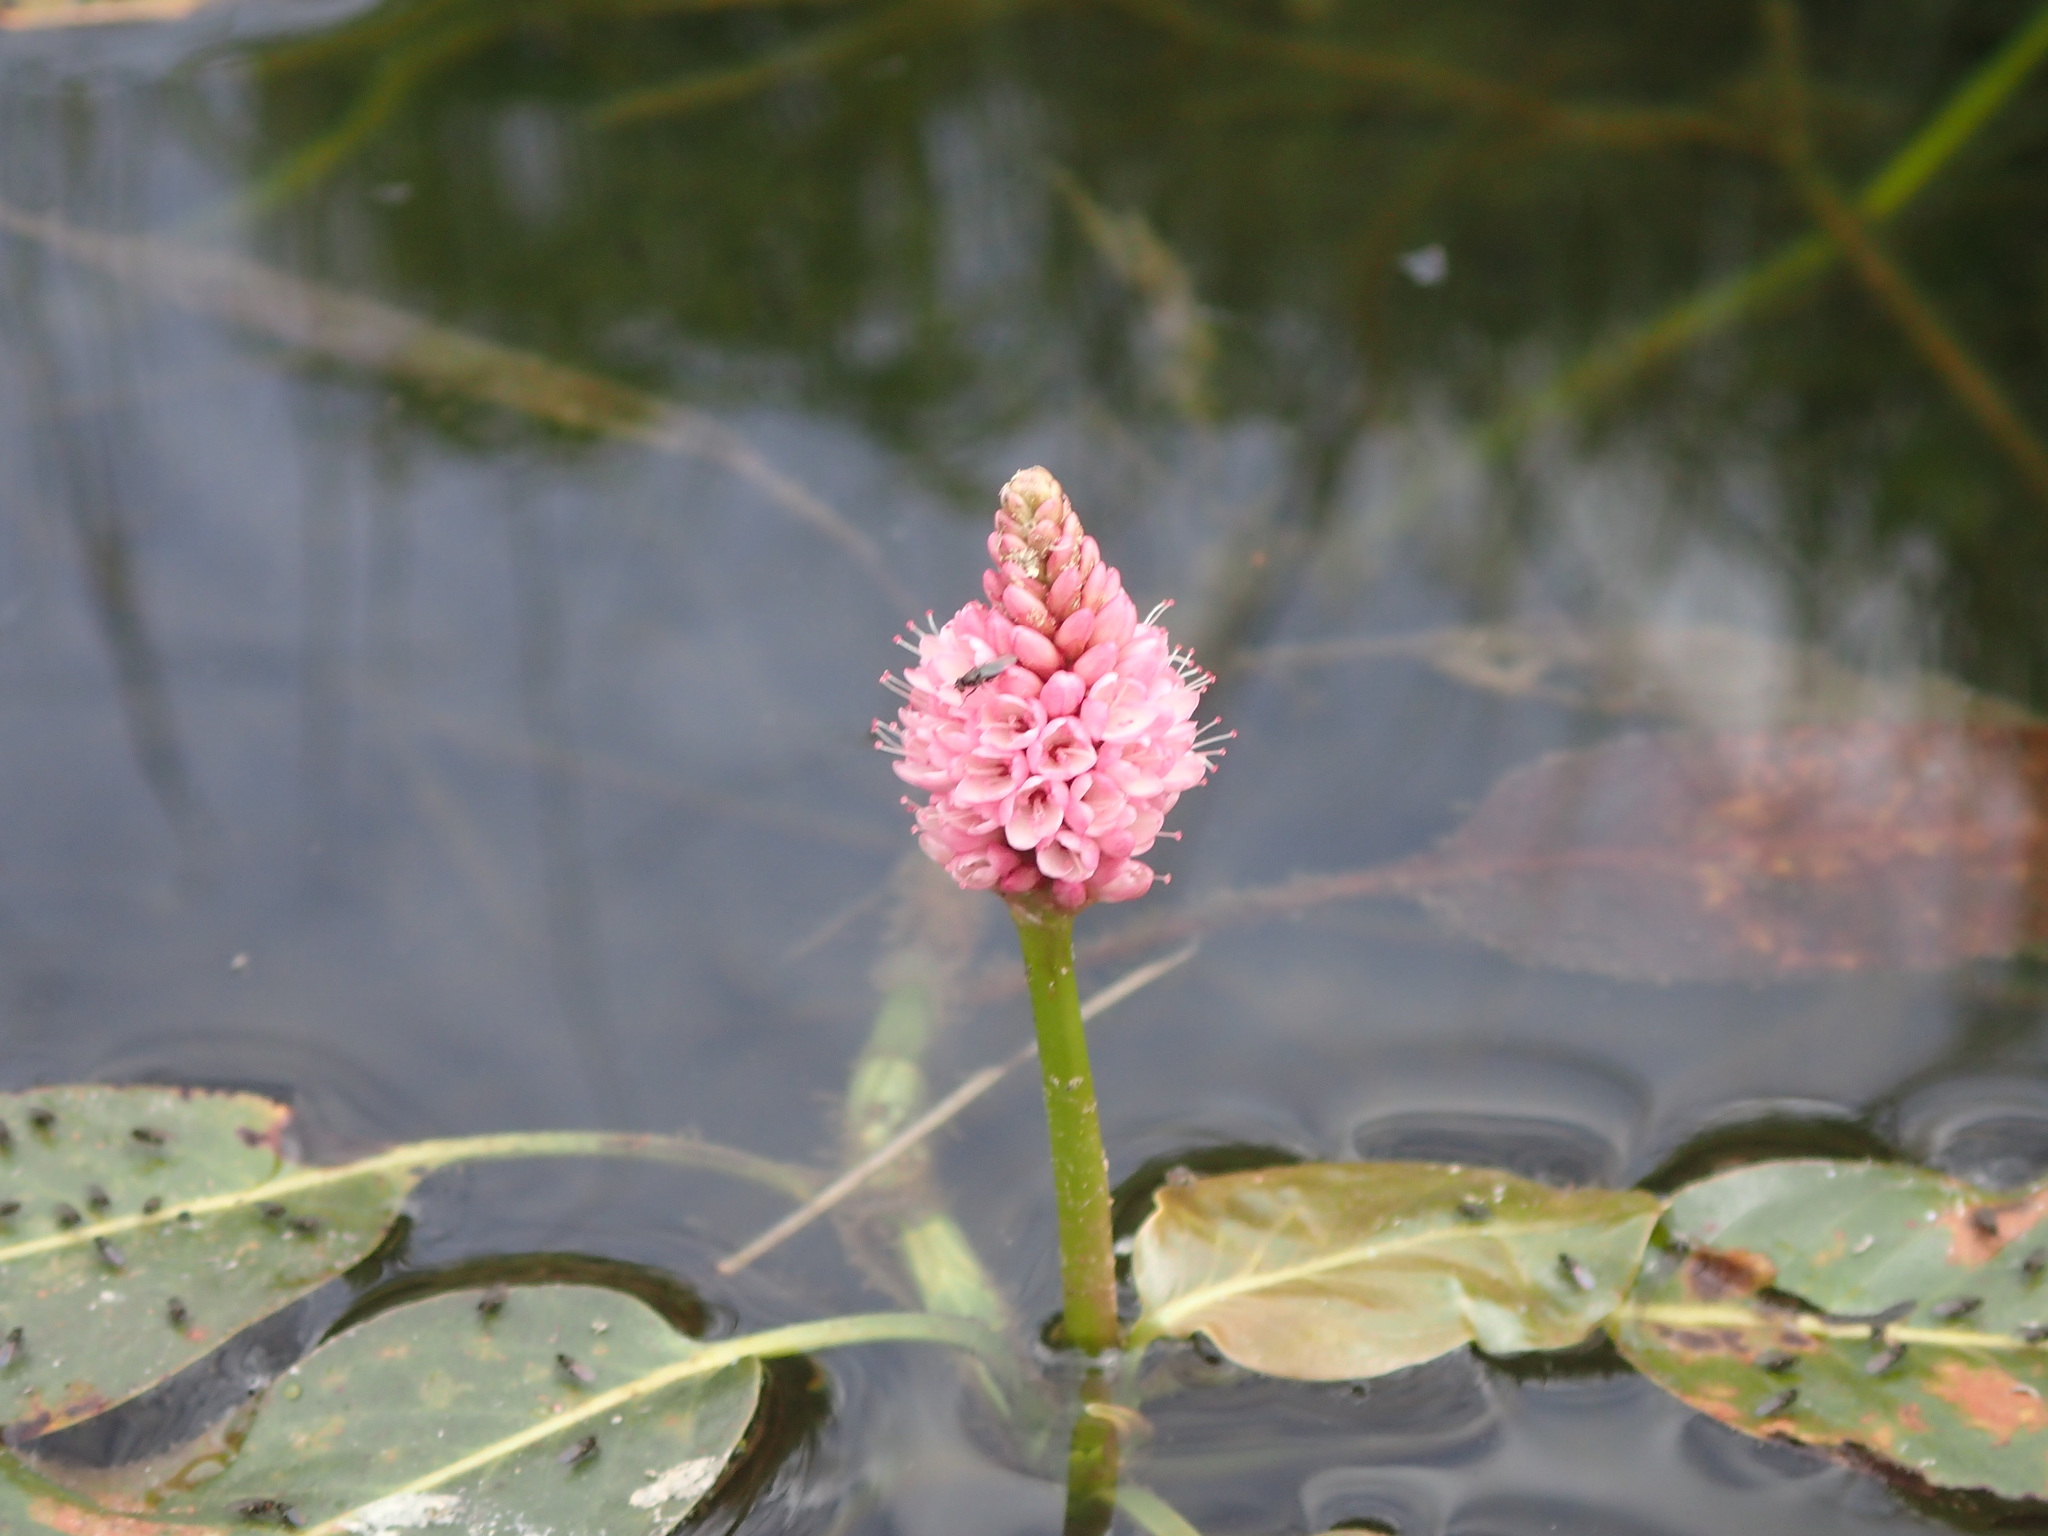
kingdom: Plantae
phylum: Tracheophyta
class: Magnoliopsida
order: Caryophyllales
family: Polygonaceae
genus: Persicaria
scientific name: Persicaria amphibia
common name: Amphibious bistort
